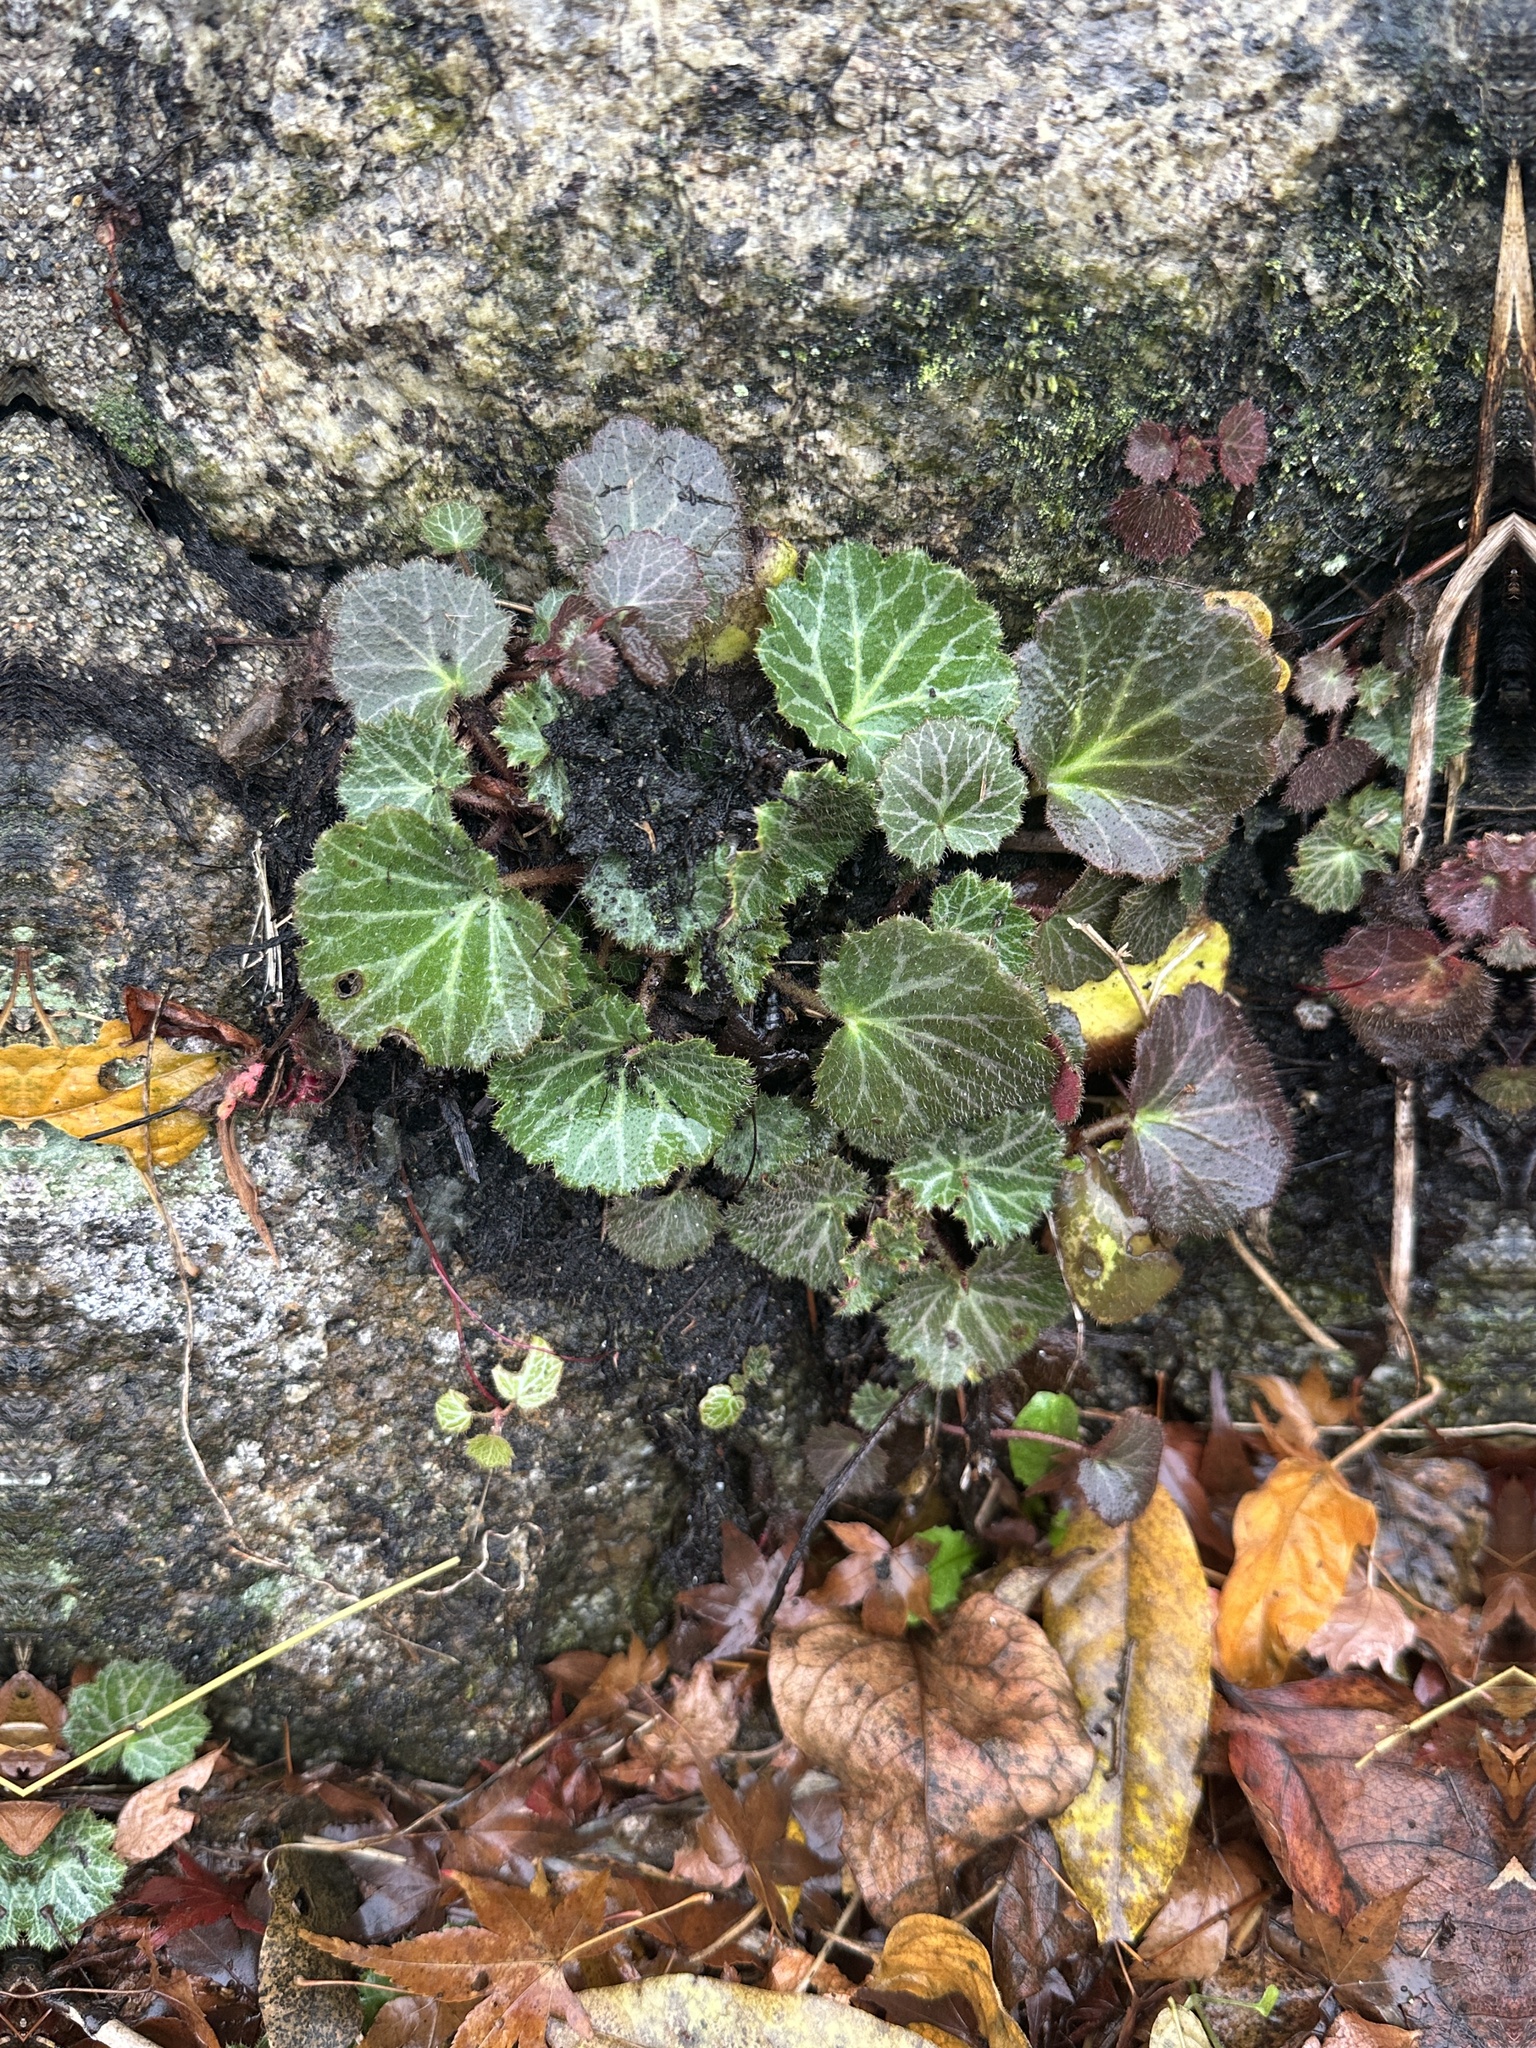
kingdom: Plantae
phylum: Tracheophyta
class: Magnoliopsida
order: Saxifragales
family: Saxifragaceae
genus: Saxifraga
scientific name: Saxifraga stolonifera
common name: Creeping saxifrage
